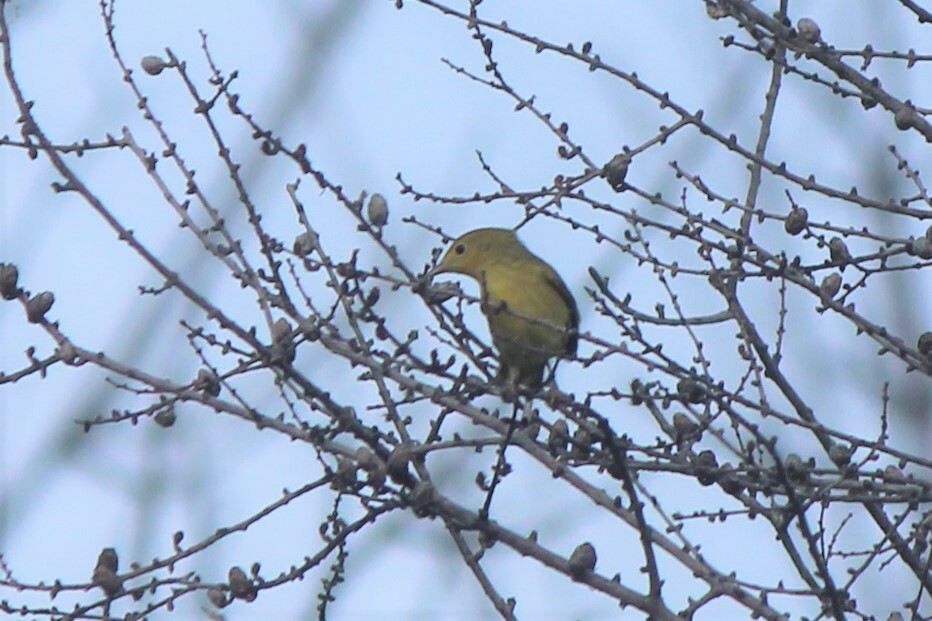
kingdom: Animalia
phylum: Chordata
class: Aves
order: Passeriformes
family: Parulidae
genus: Setophaga
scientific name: Setophaga petechia
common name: Yellow warbler
